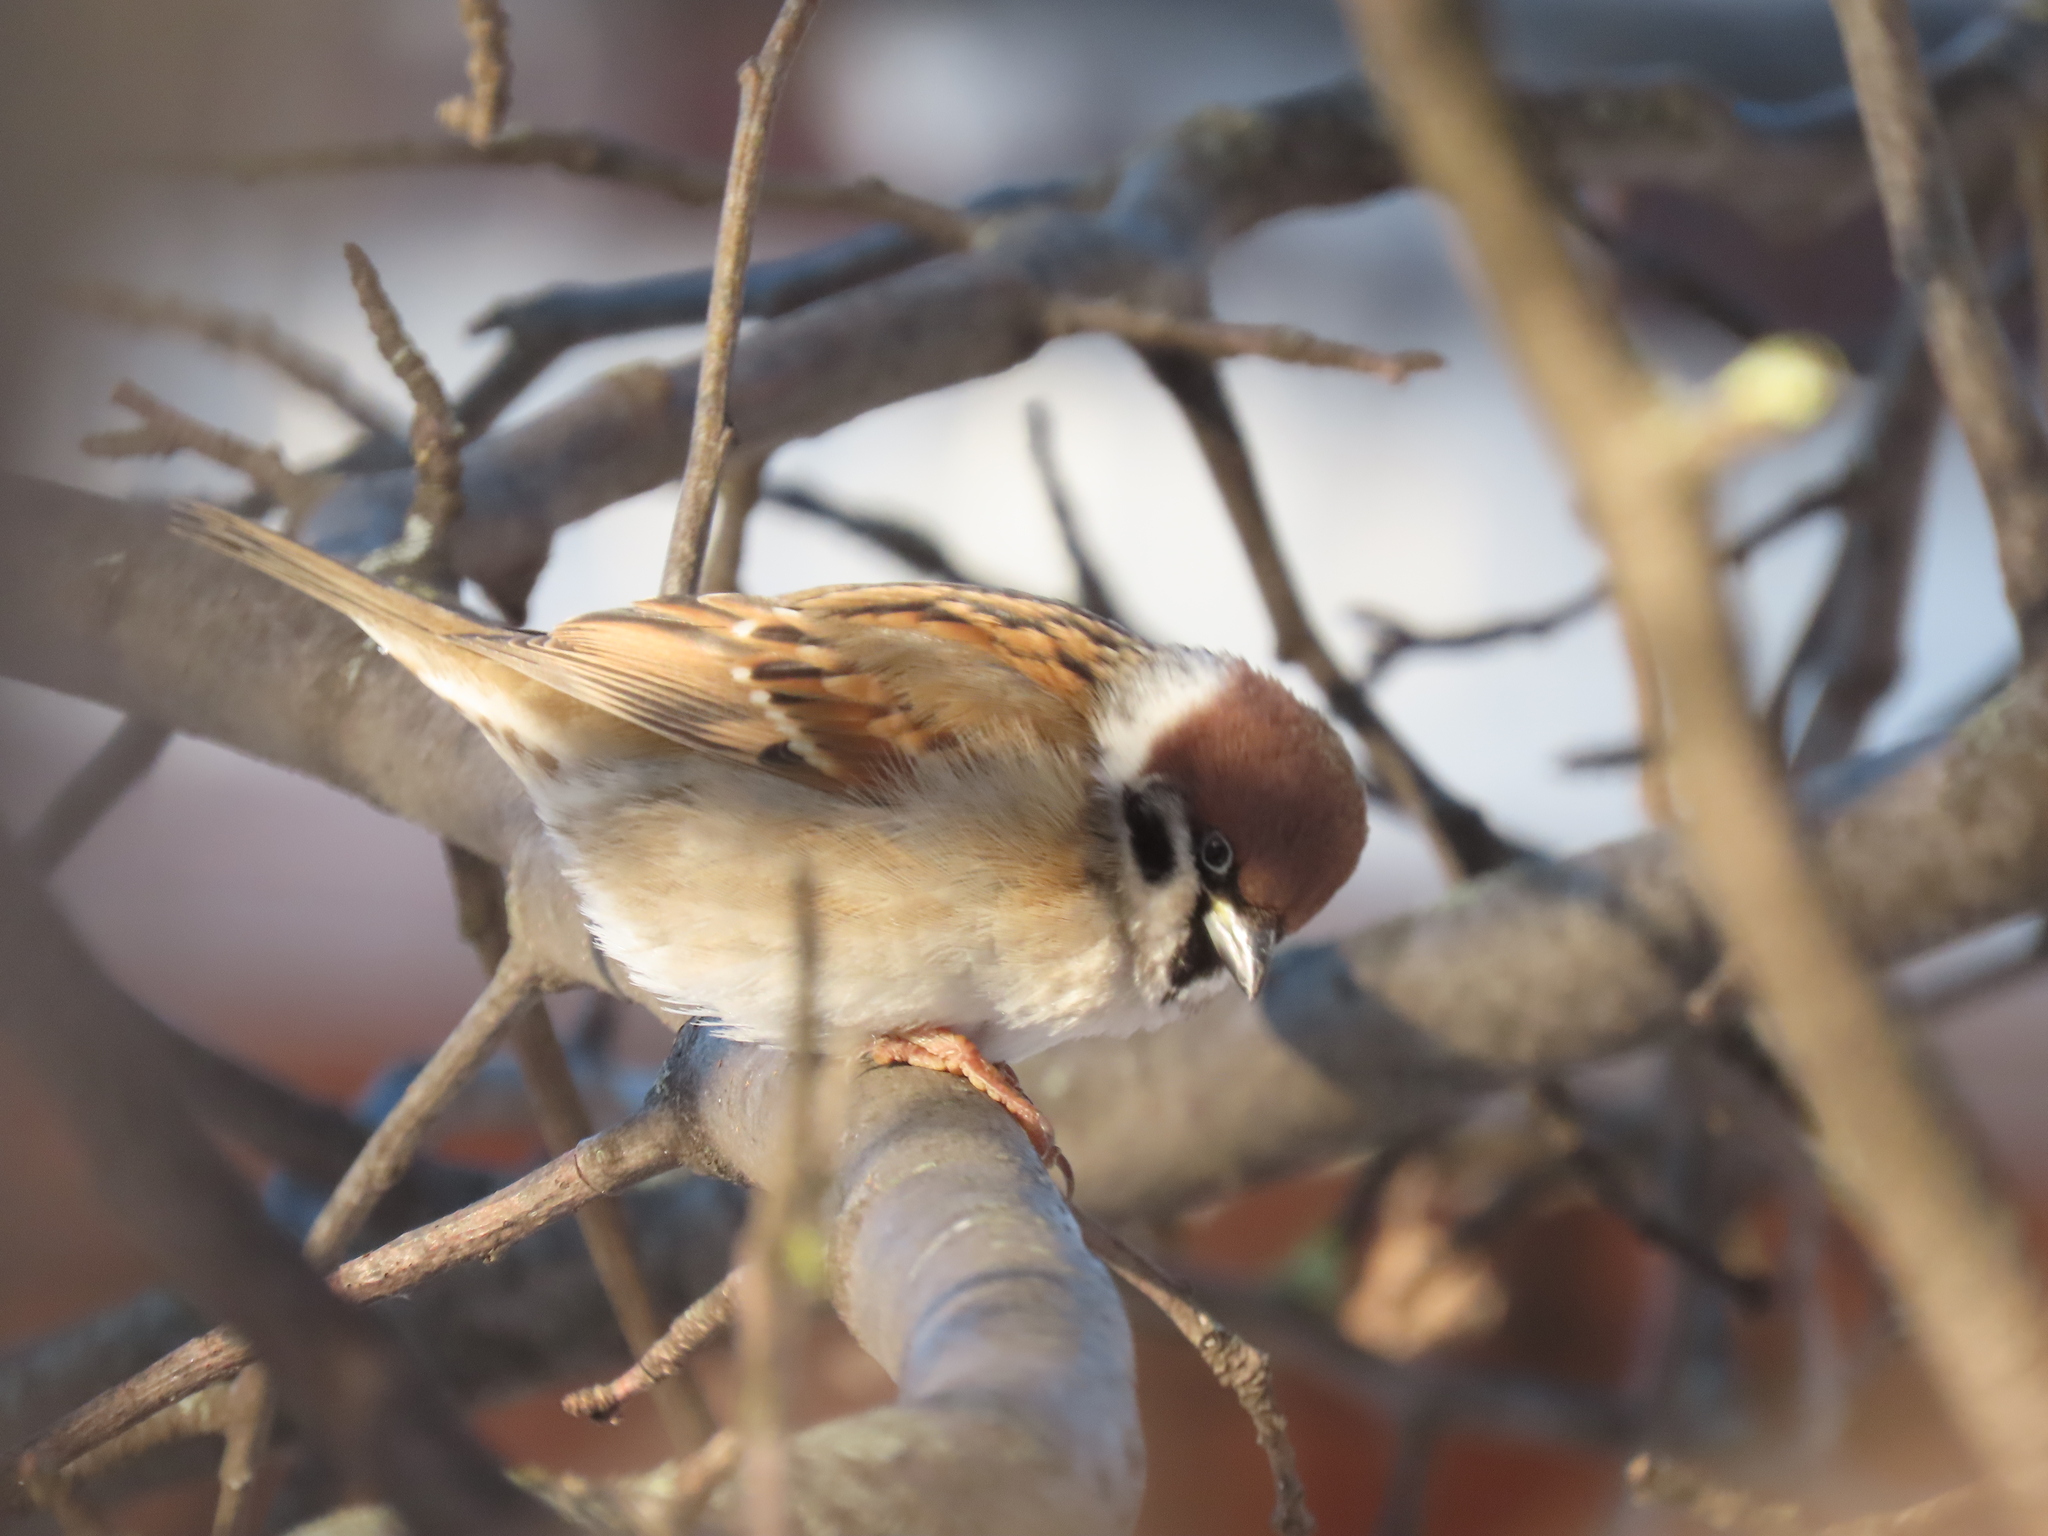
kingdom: Animalia
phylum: Chordata
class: Aves
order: Passeriformes
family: Passeridae
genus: Passer
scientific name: Passer montanus
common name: Eurasian tree sparrow
